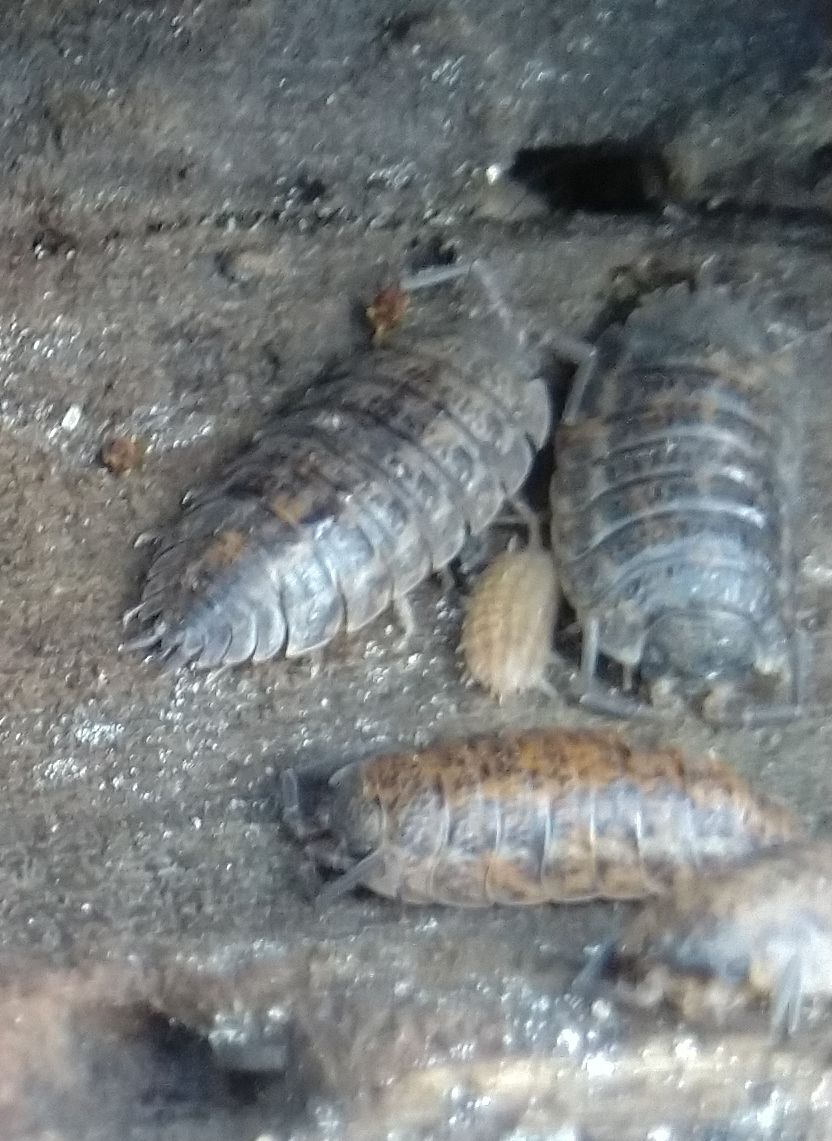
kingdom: Animalia
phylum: Arthropoda
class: Malacostraca
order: Isopoda
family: Trachelipodidae
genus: Trachelipus
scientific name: Trachelipus rathkii
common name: Isopod
